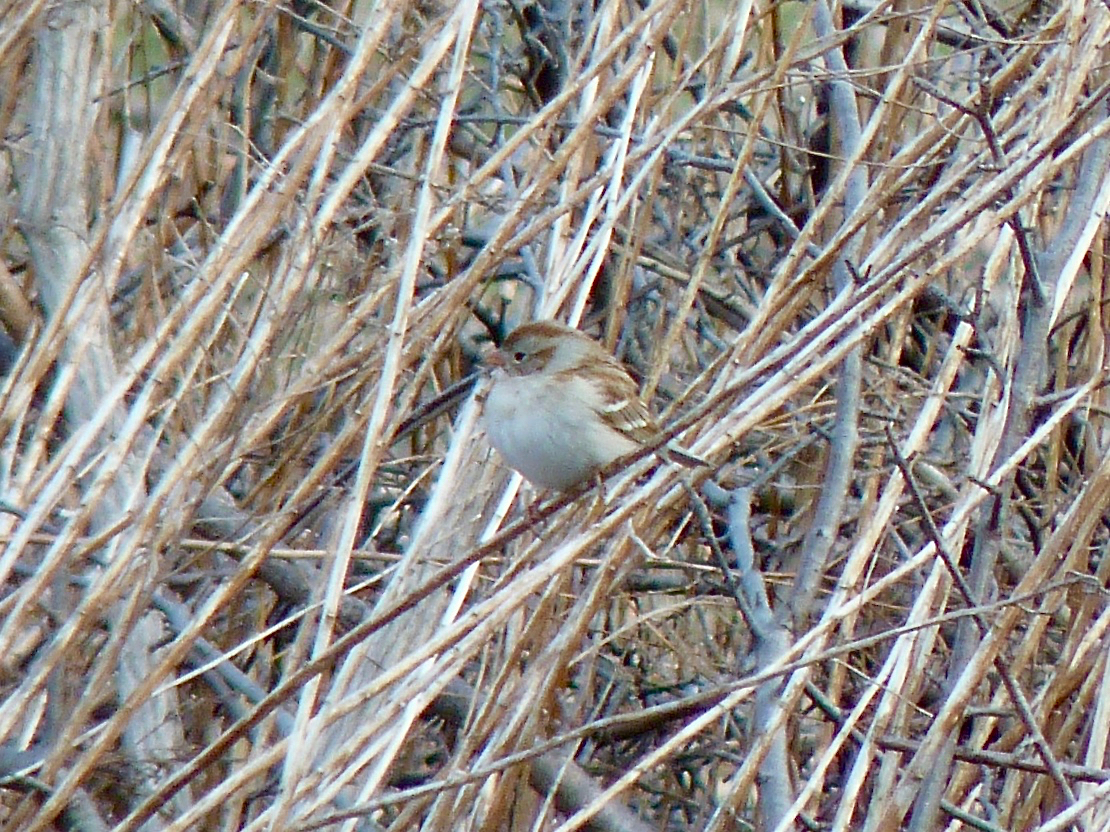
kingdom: Animalia
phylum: Chordata
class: Aves
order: Passeriformes
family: Passerellidae
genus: Spizella
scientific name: Spizella pusilla
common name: Field sparrow
